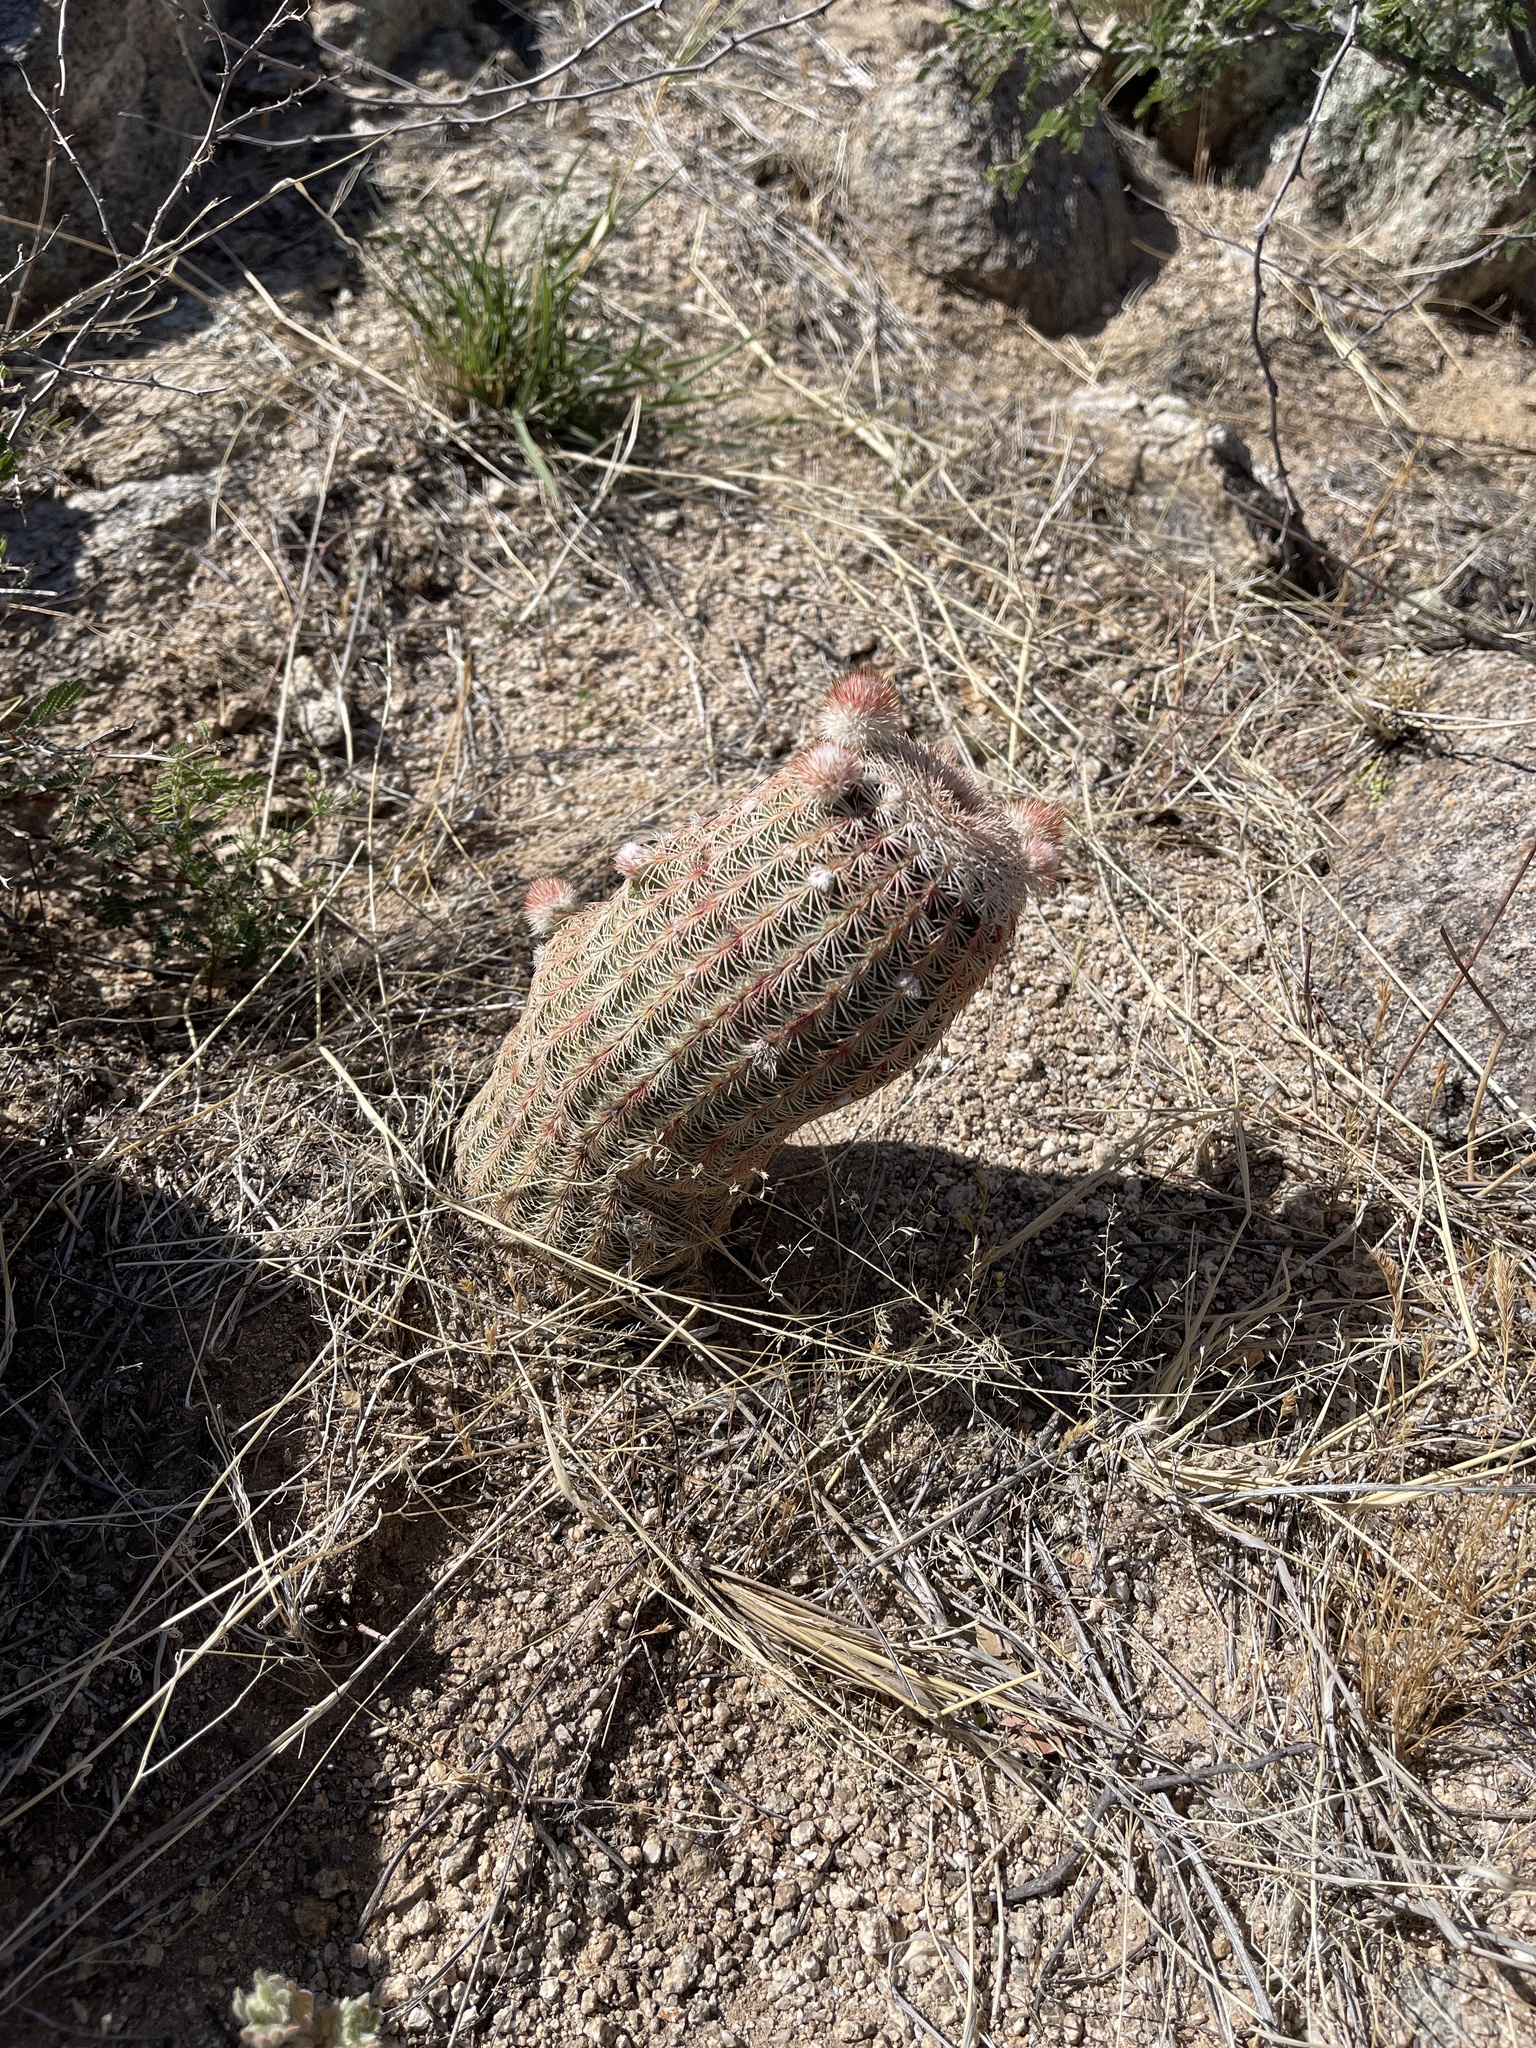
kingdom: Plantae
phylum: Tracheophyta
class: Magnoliopsida
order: Caryophyllales
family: Cactaceae
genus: Echinocereus
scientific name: Echinocereus rigidissimus
